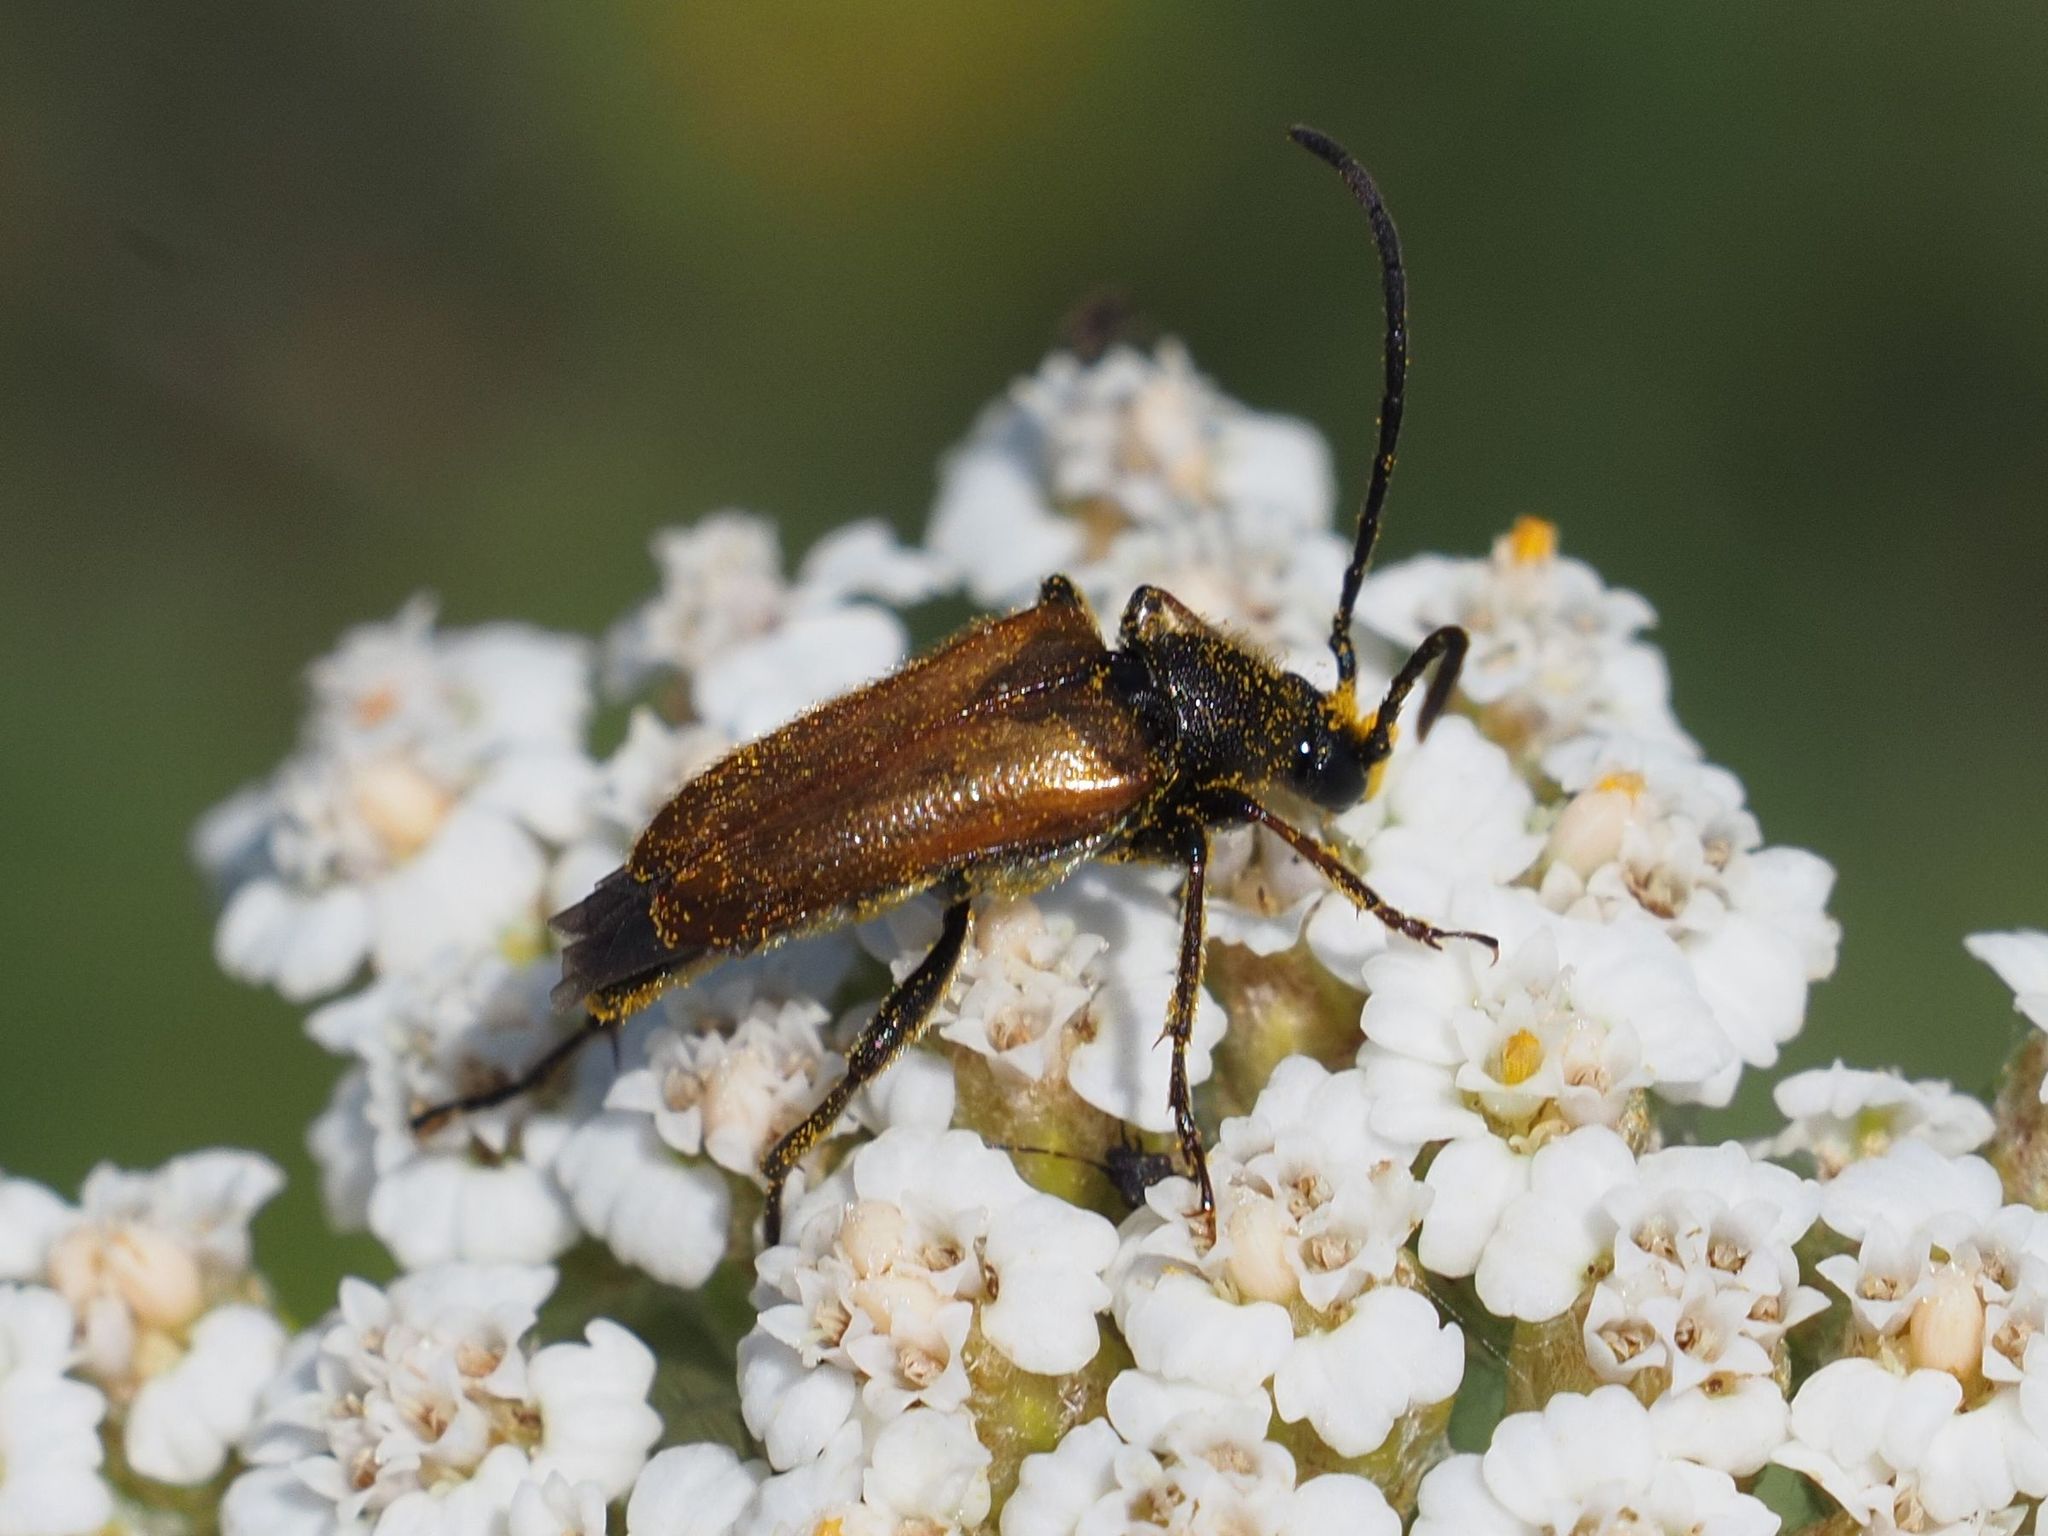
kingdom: Animalia
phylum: Arthropoda
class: Insecta
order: Coleoptera
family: Cerambycidae
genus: Pseudovadonia
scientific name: Pseudovadonia livida
